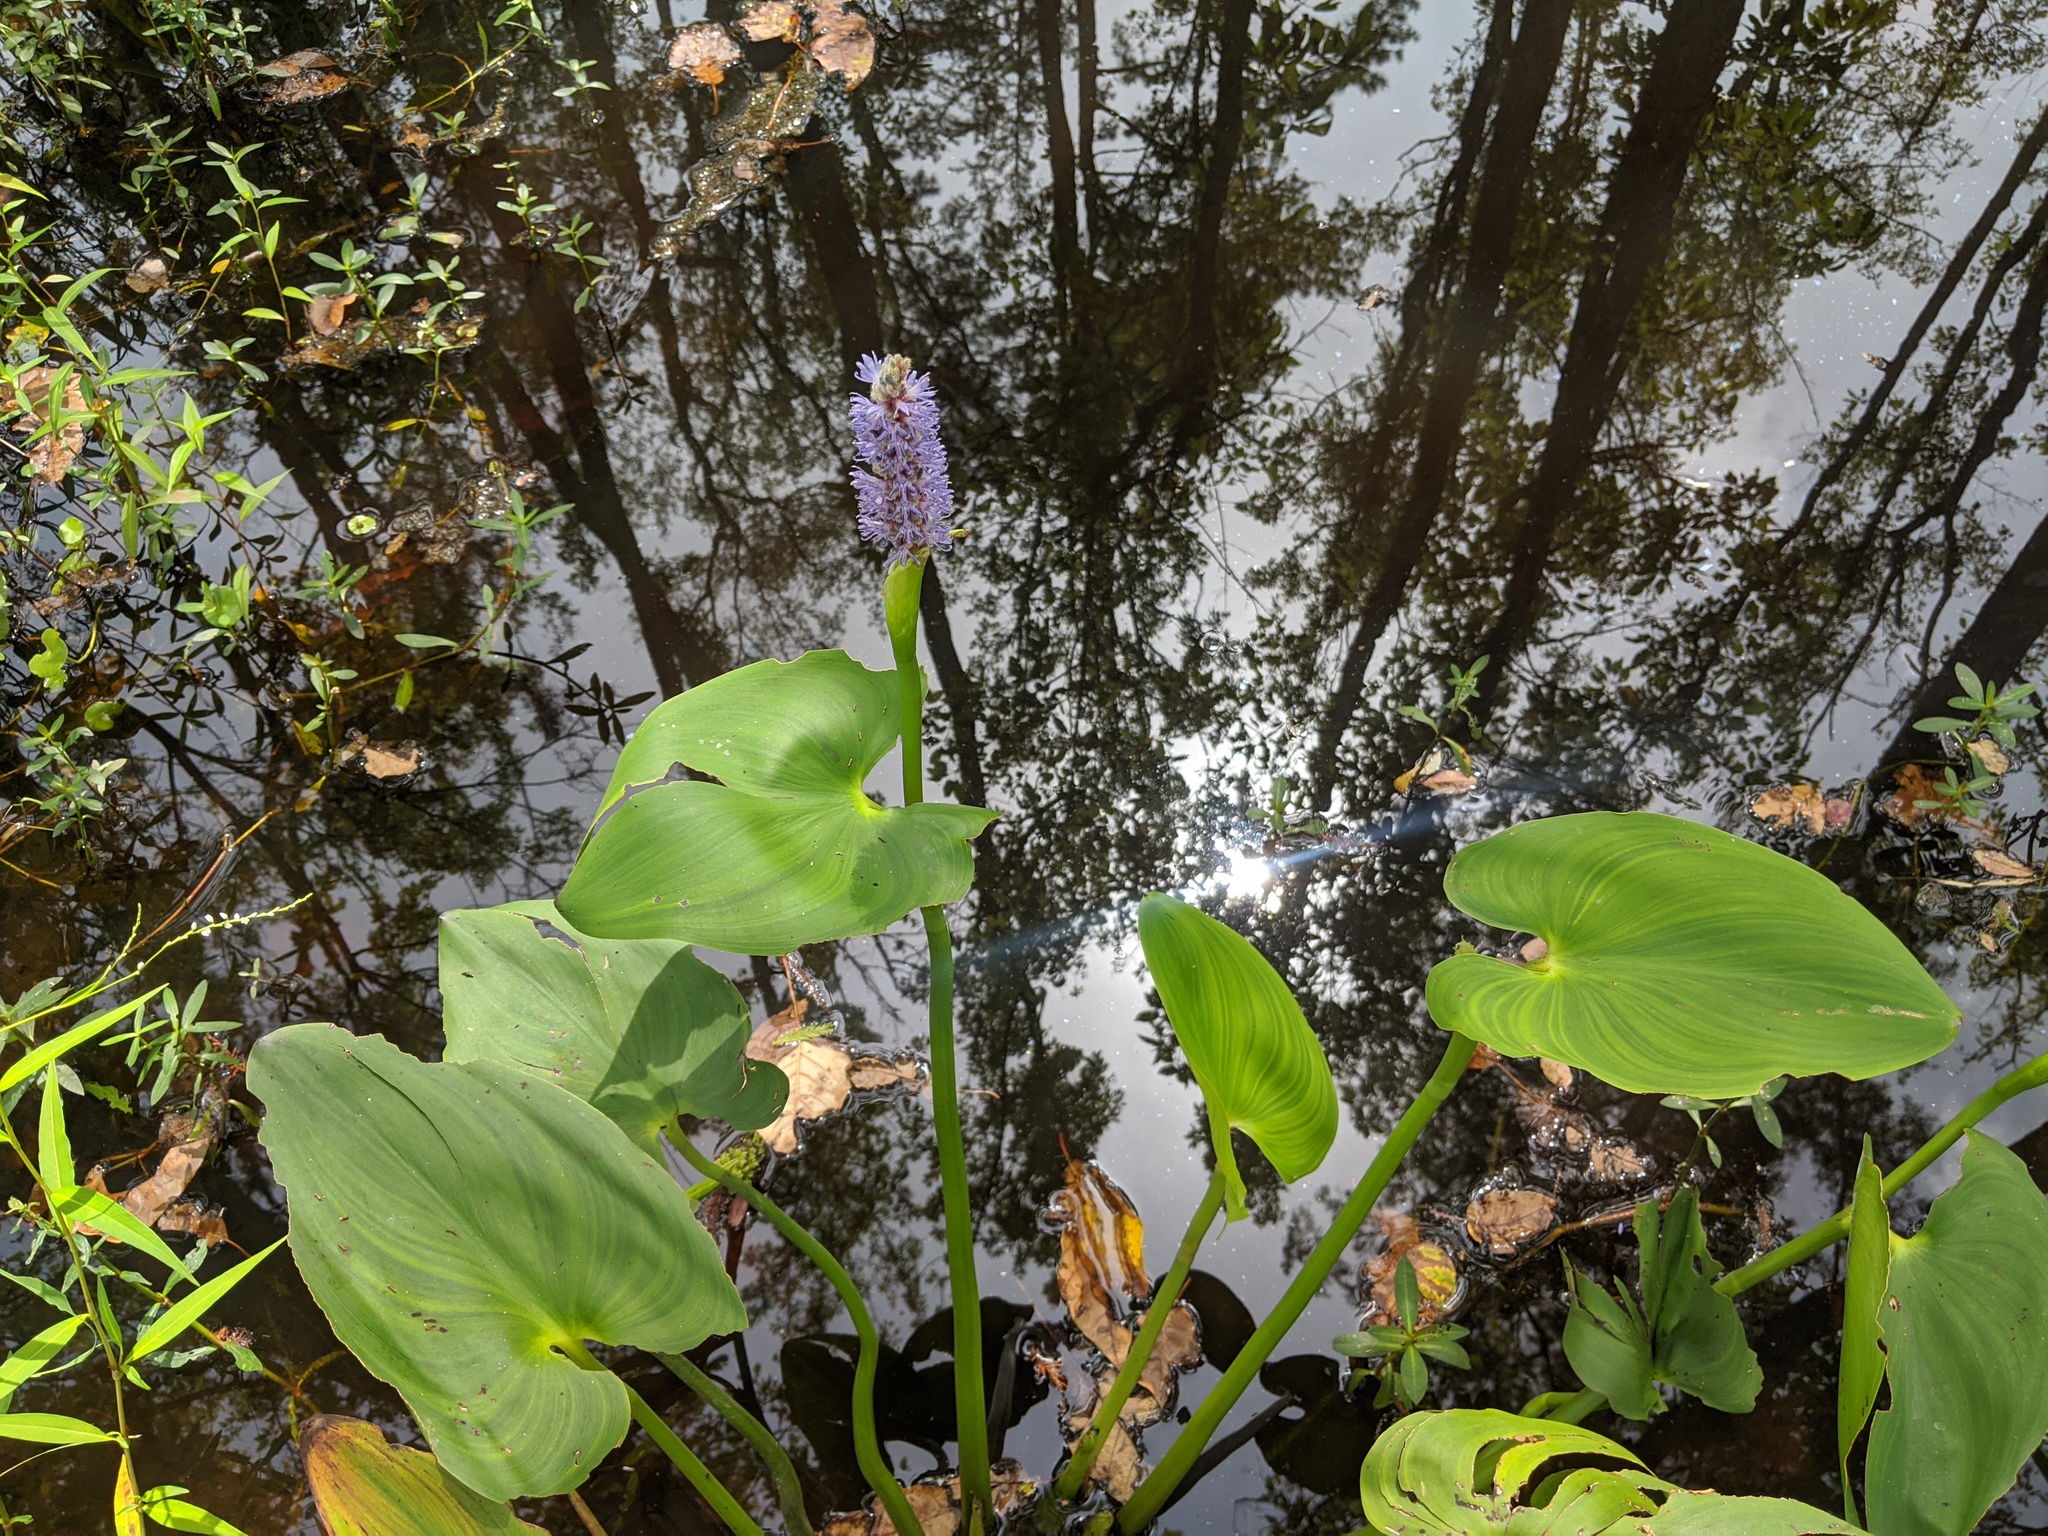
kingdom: Plantae
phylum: Tracheophyta
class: Liliopsida
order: Commelinales
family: Pontederiaceae
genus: Pontederia
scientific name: Pontederia cordata
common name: Pickerelweed
